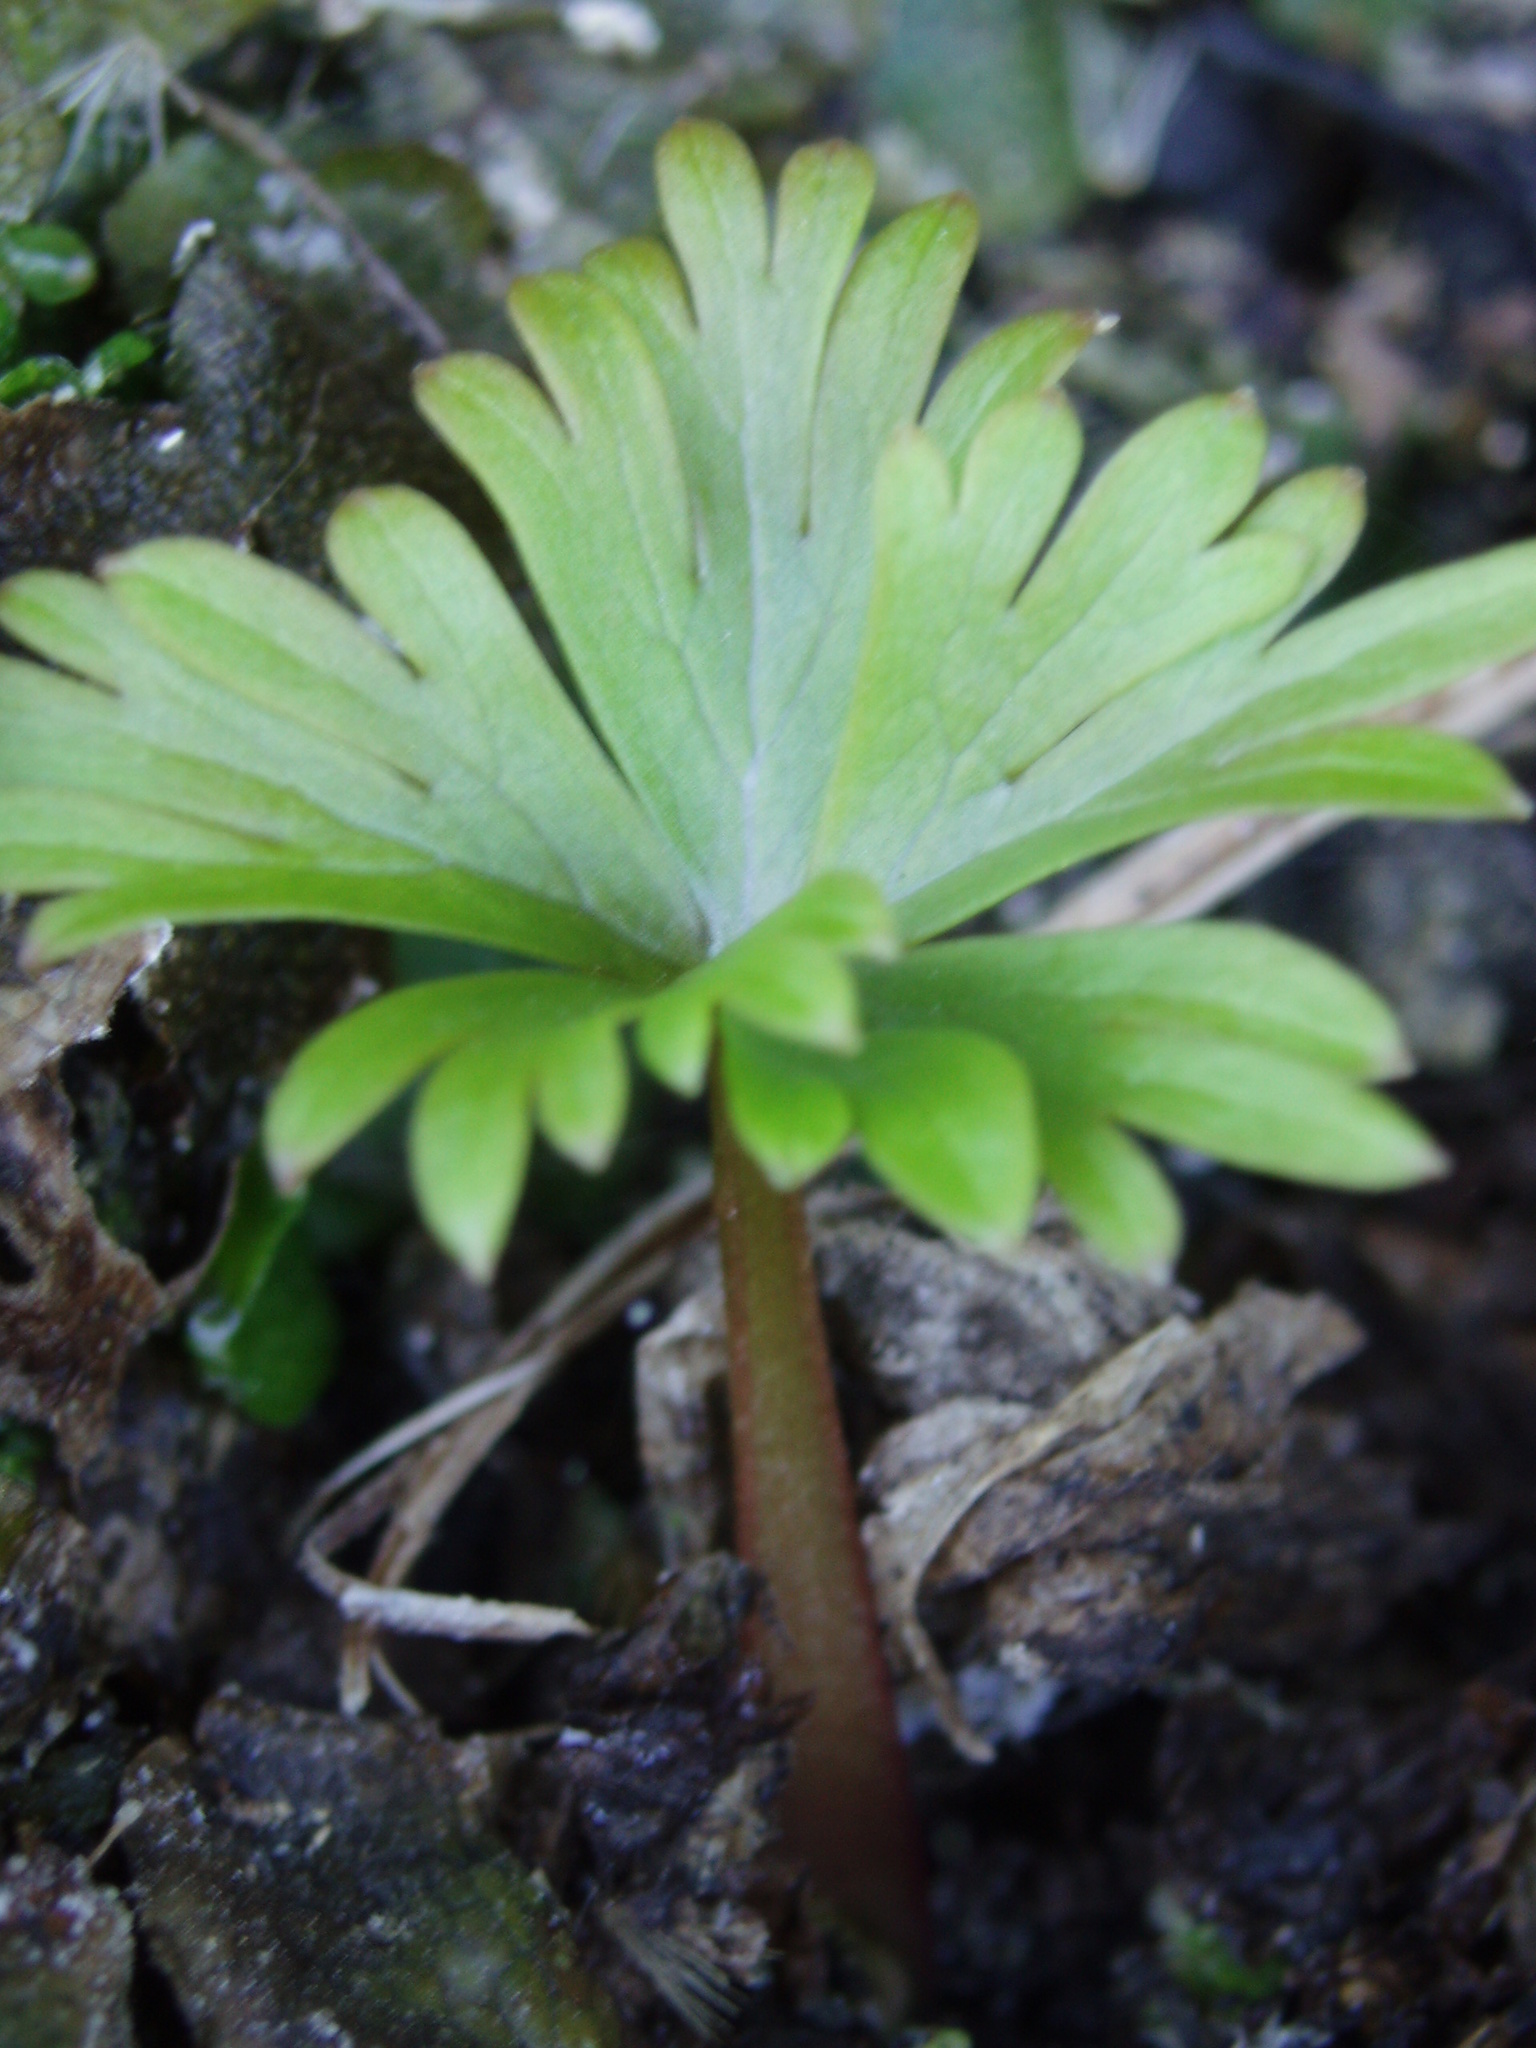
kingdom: Plantae
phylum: Tracheophyta
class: Magnoliopsida
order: Ranunculales
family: Ranunculaceae
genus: Aconitum
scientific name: Aconitum noveboracense
